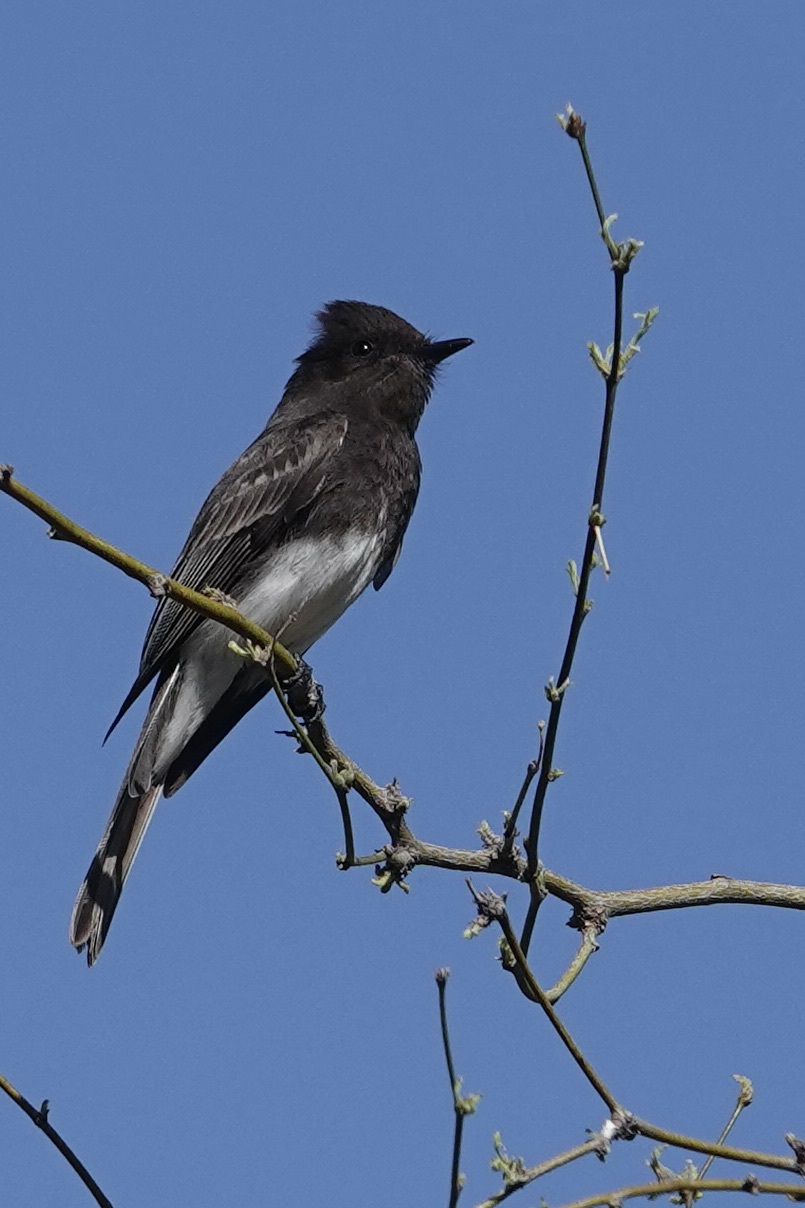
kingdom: Animalia
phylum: Chordata
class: Aves
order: Passeriformes
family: Tyrannidae
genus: Sayornis
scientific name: Sayornis nigricans
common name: Black phoebe
